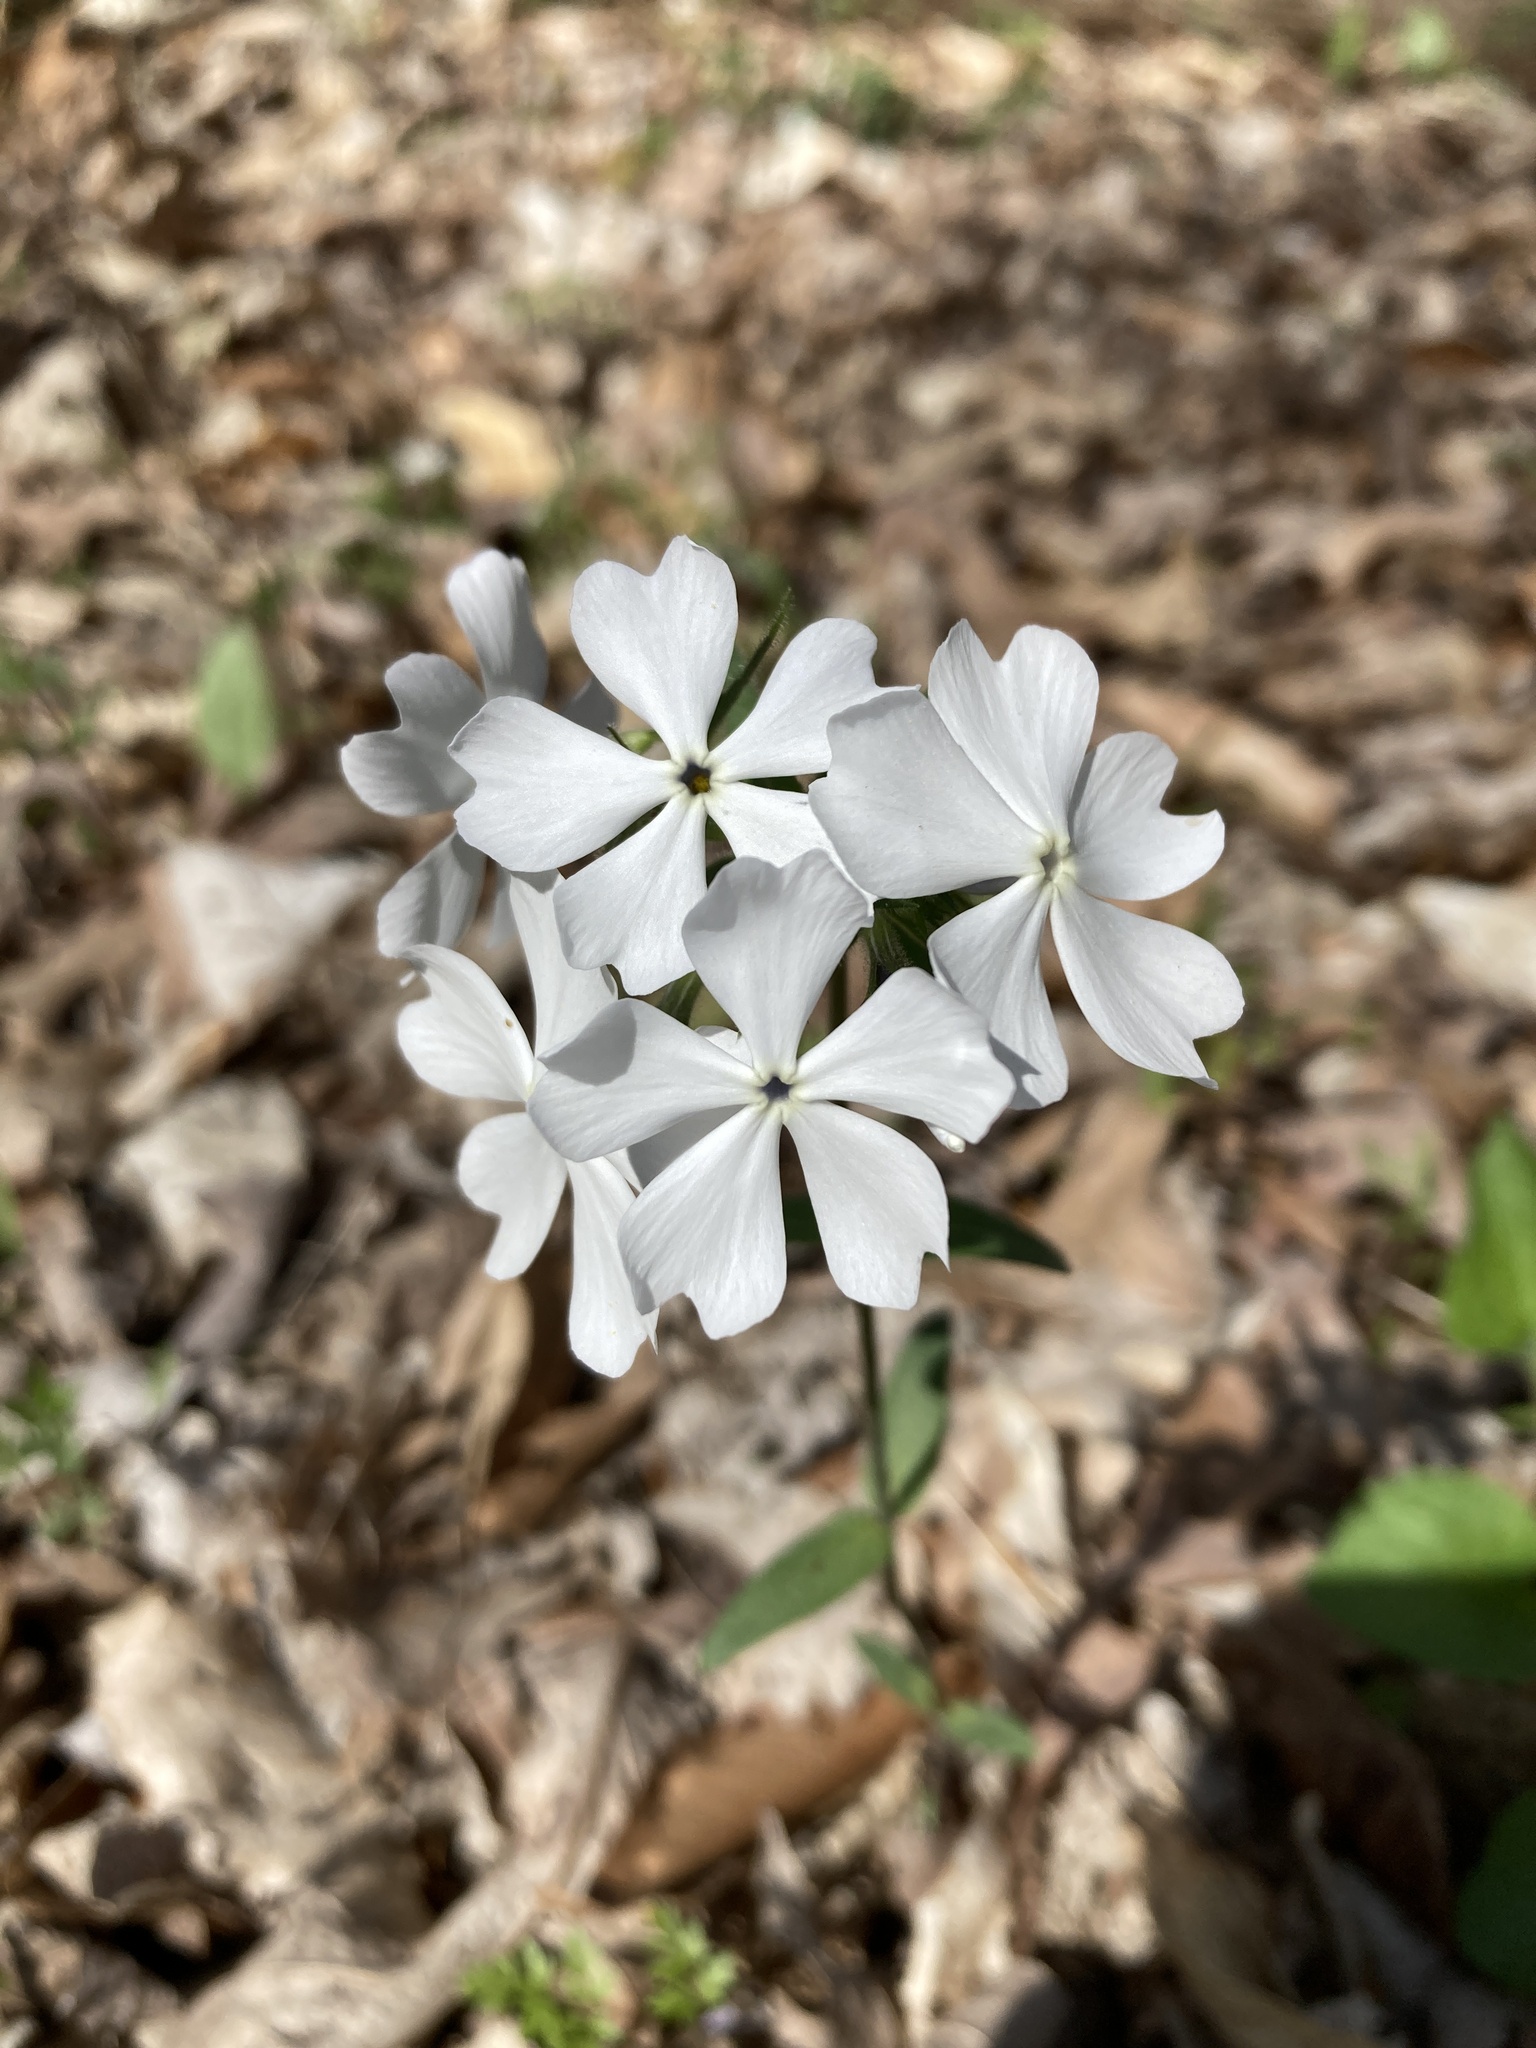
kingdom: Plantae
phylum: Tracheophyta
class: Magnoliopsida
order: Ericales
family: Polemoniaceae
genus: Phlox
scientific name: Phlox divaricata
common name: Blue phlox
